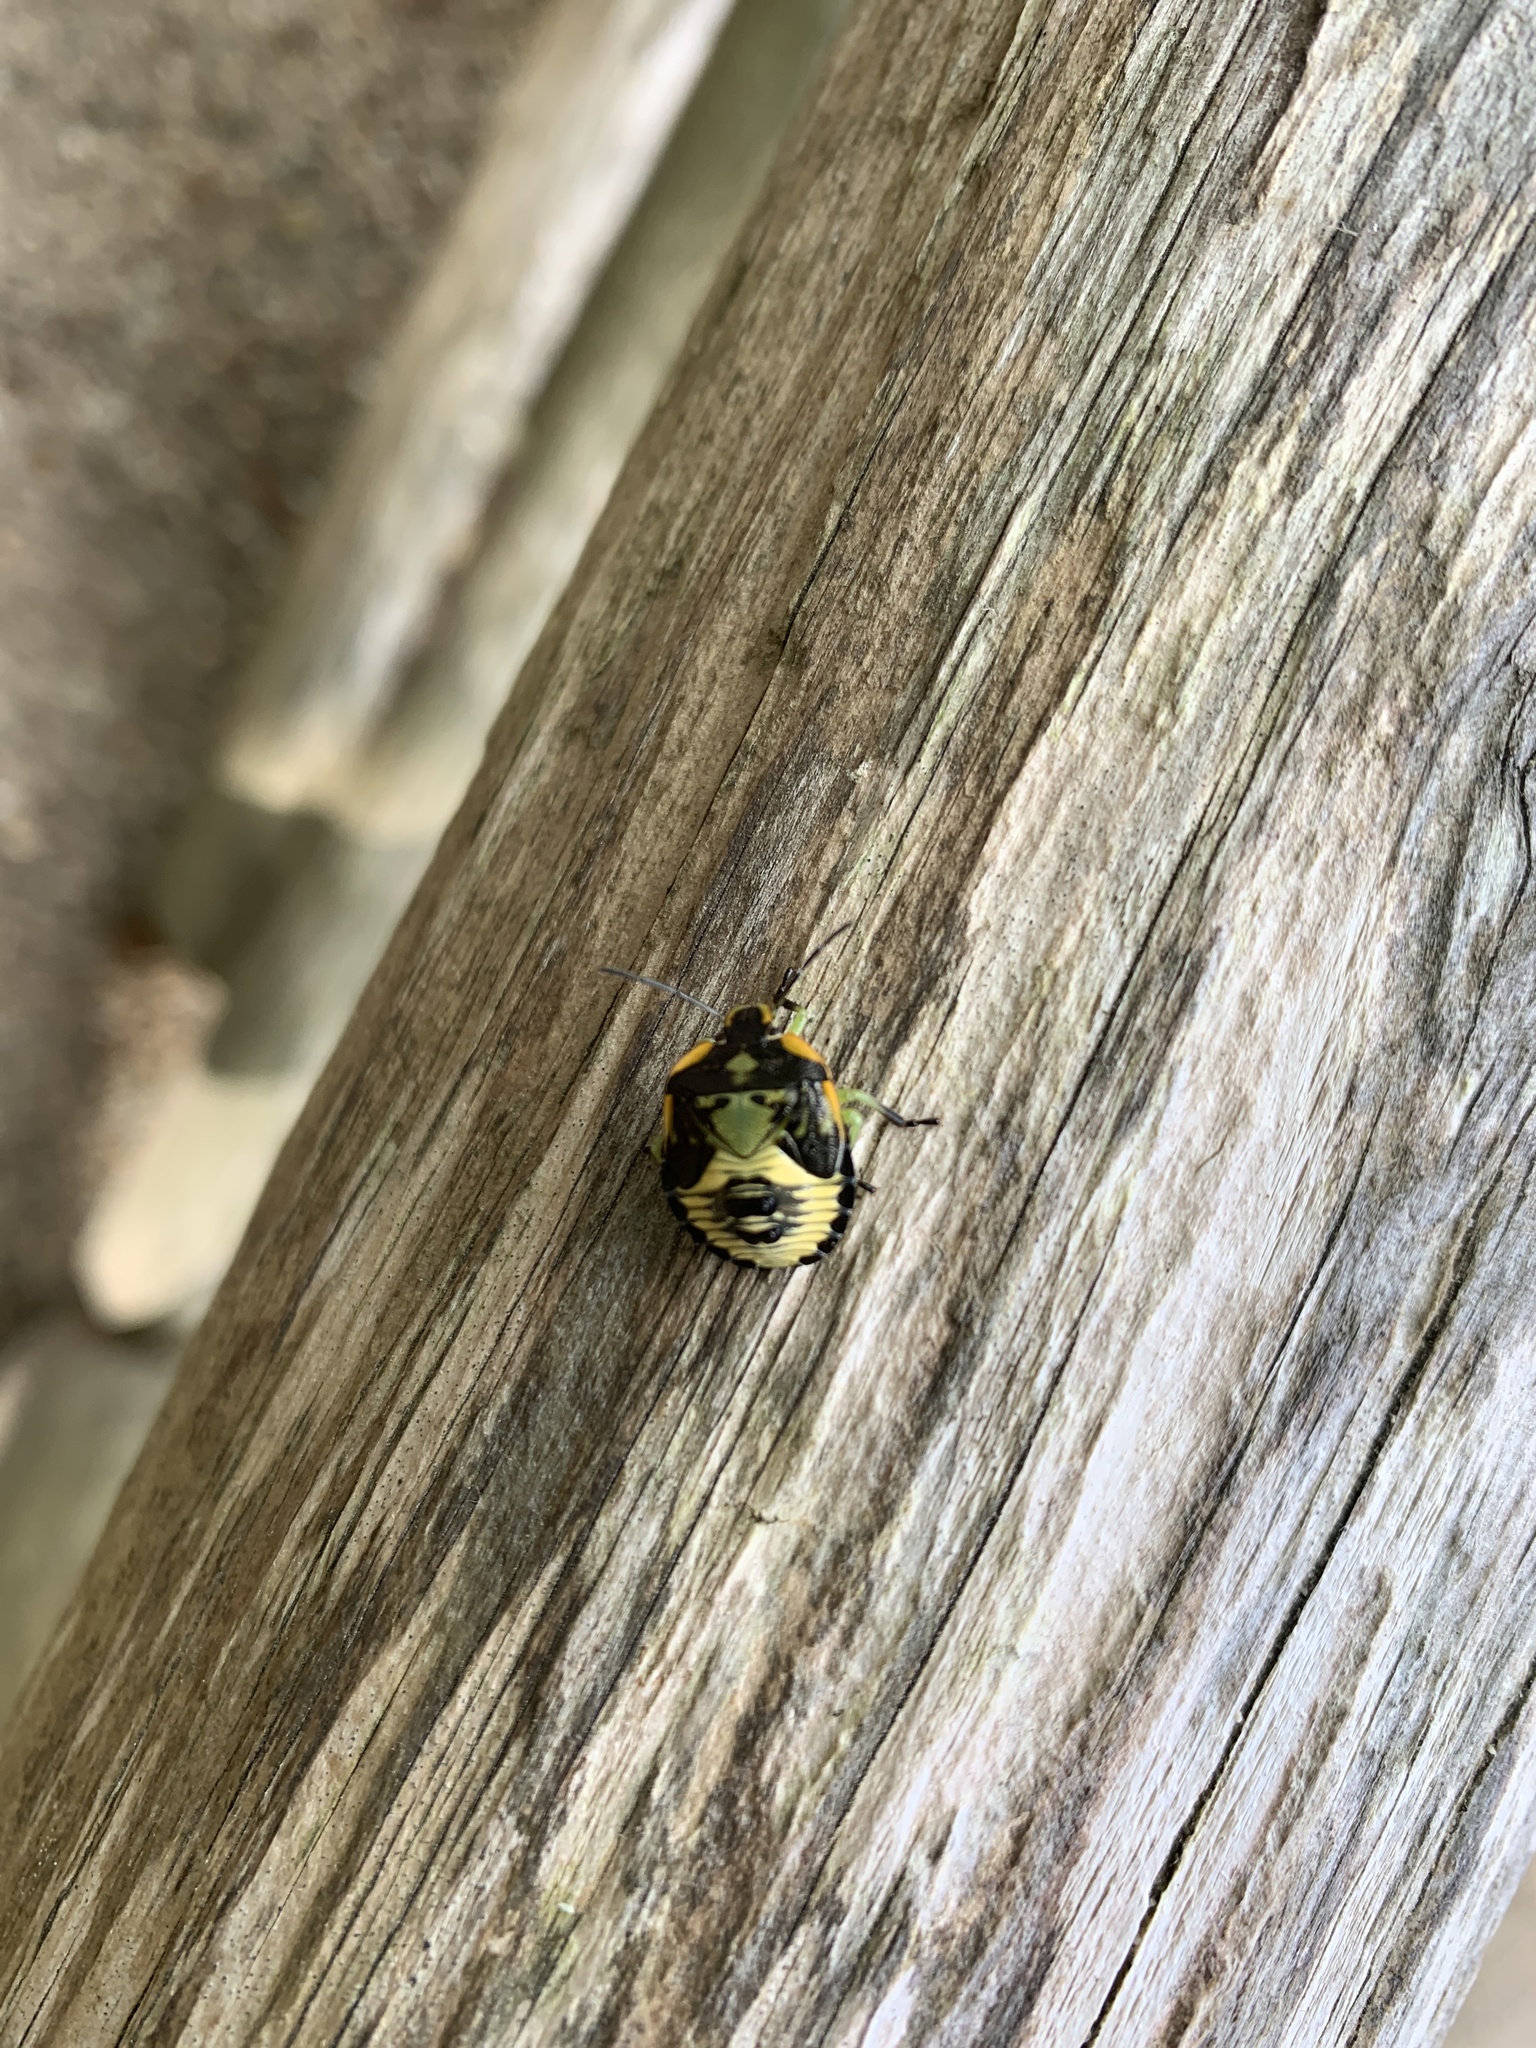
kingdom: Animalia
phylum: Arthropoda
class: Insecta
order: Hemiptera
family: Pentatomidae
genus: Chinavia
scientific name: Chinavia hilaris
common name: Green stink bug
